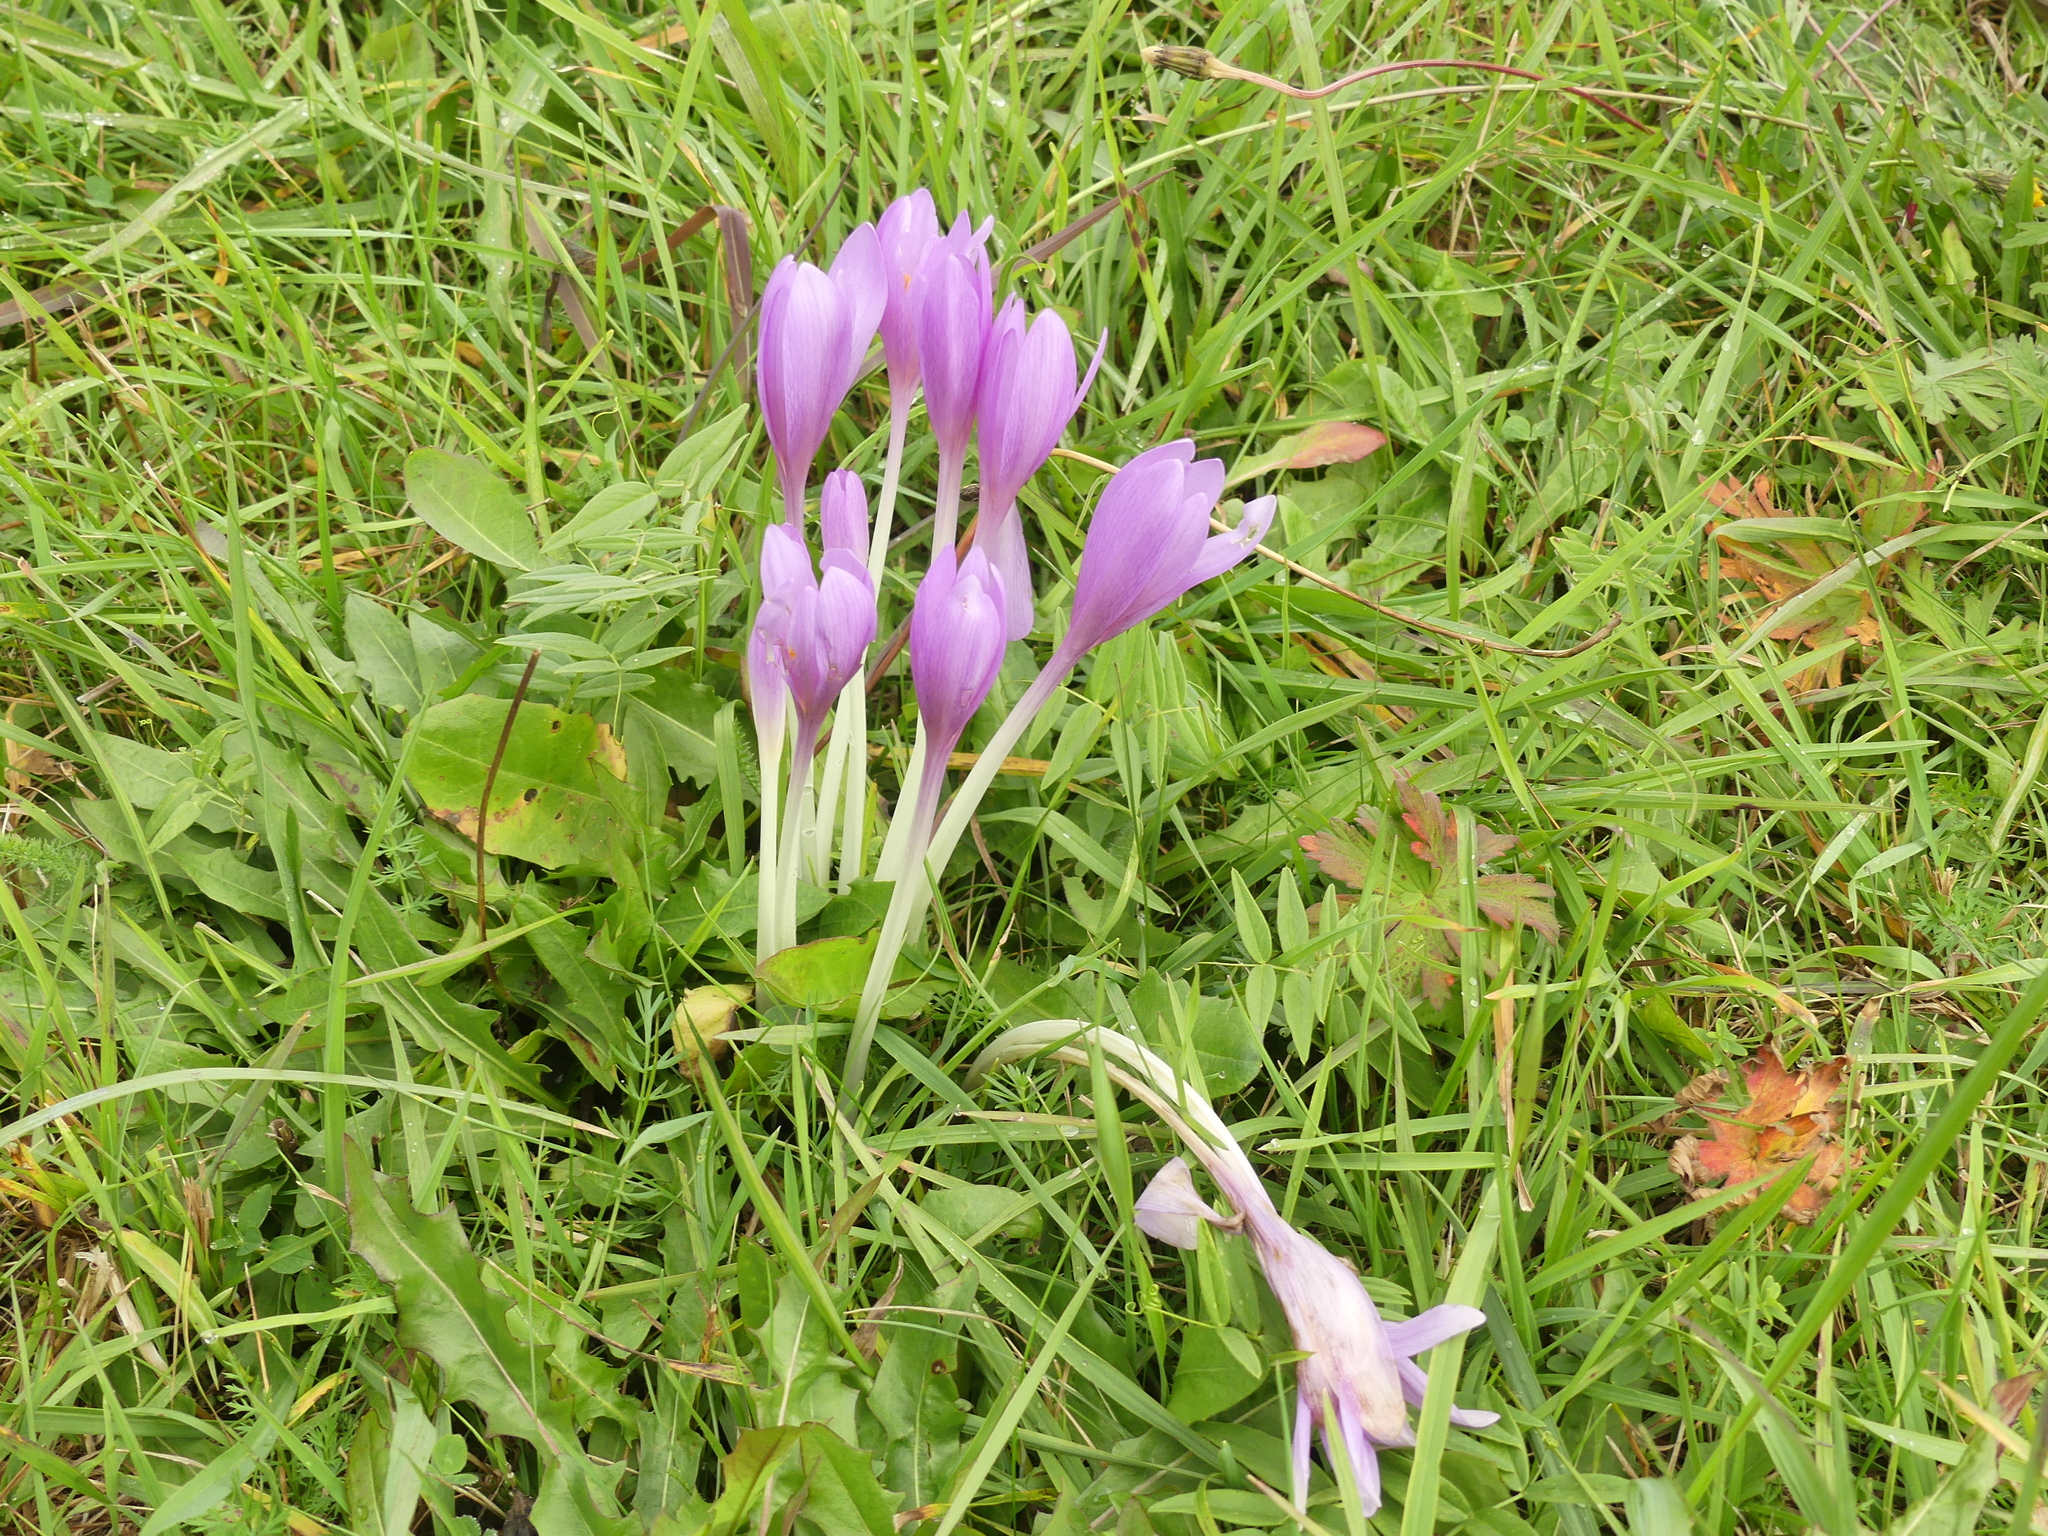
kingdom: Plantae
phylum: Tracheophyta
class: Liliopsida
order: Liliales
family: Colchicaceae
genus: Colchicum
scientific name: Colchicum autumnale
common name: Autumn crocus
